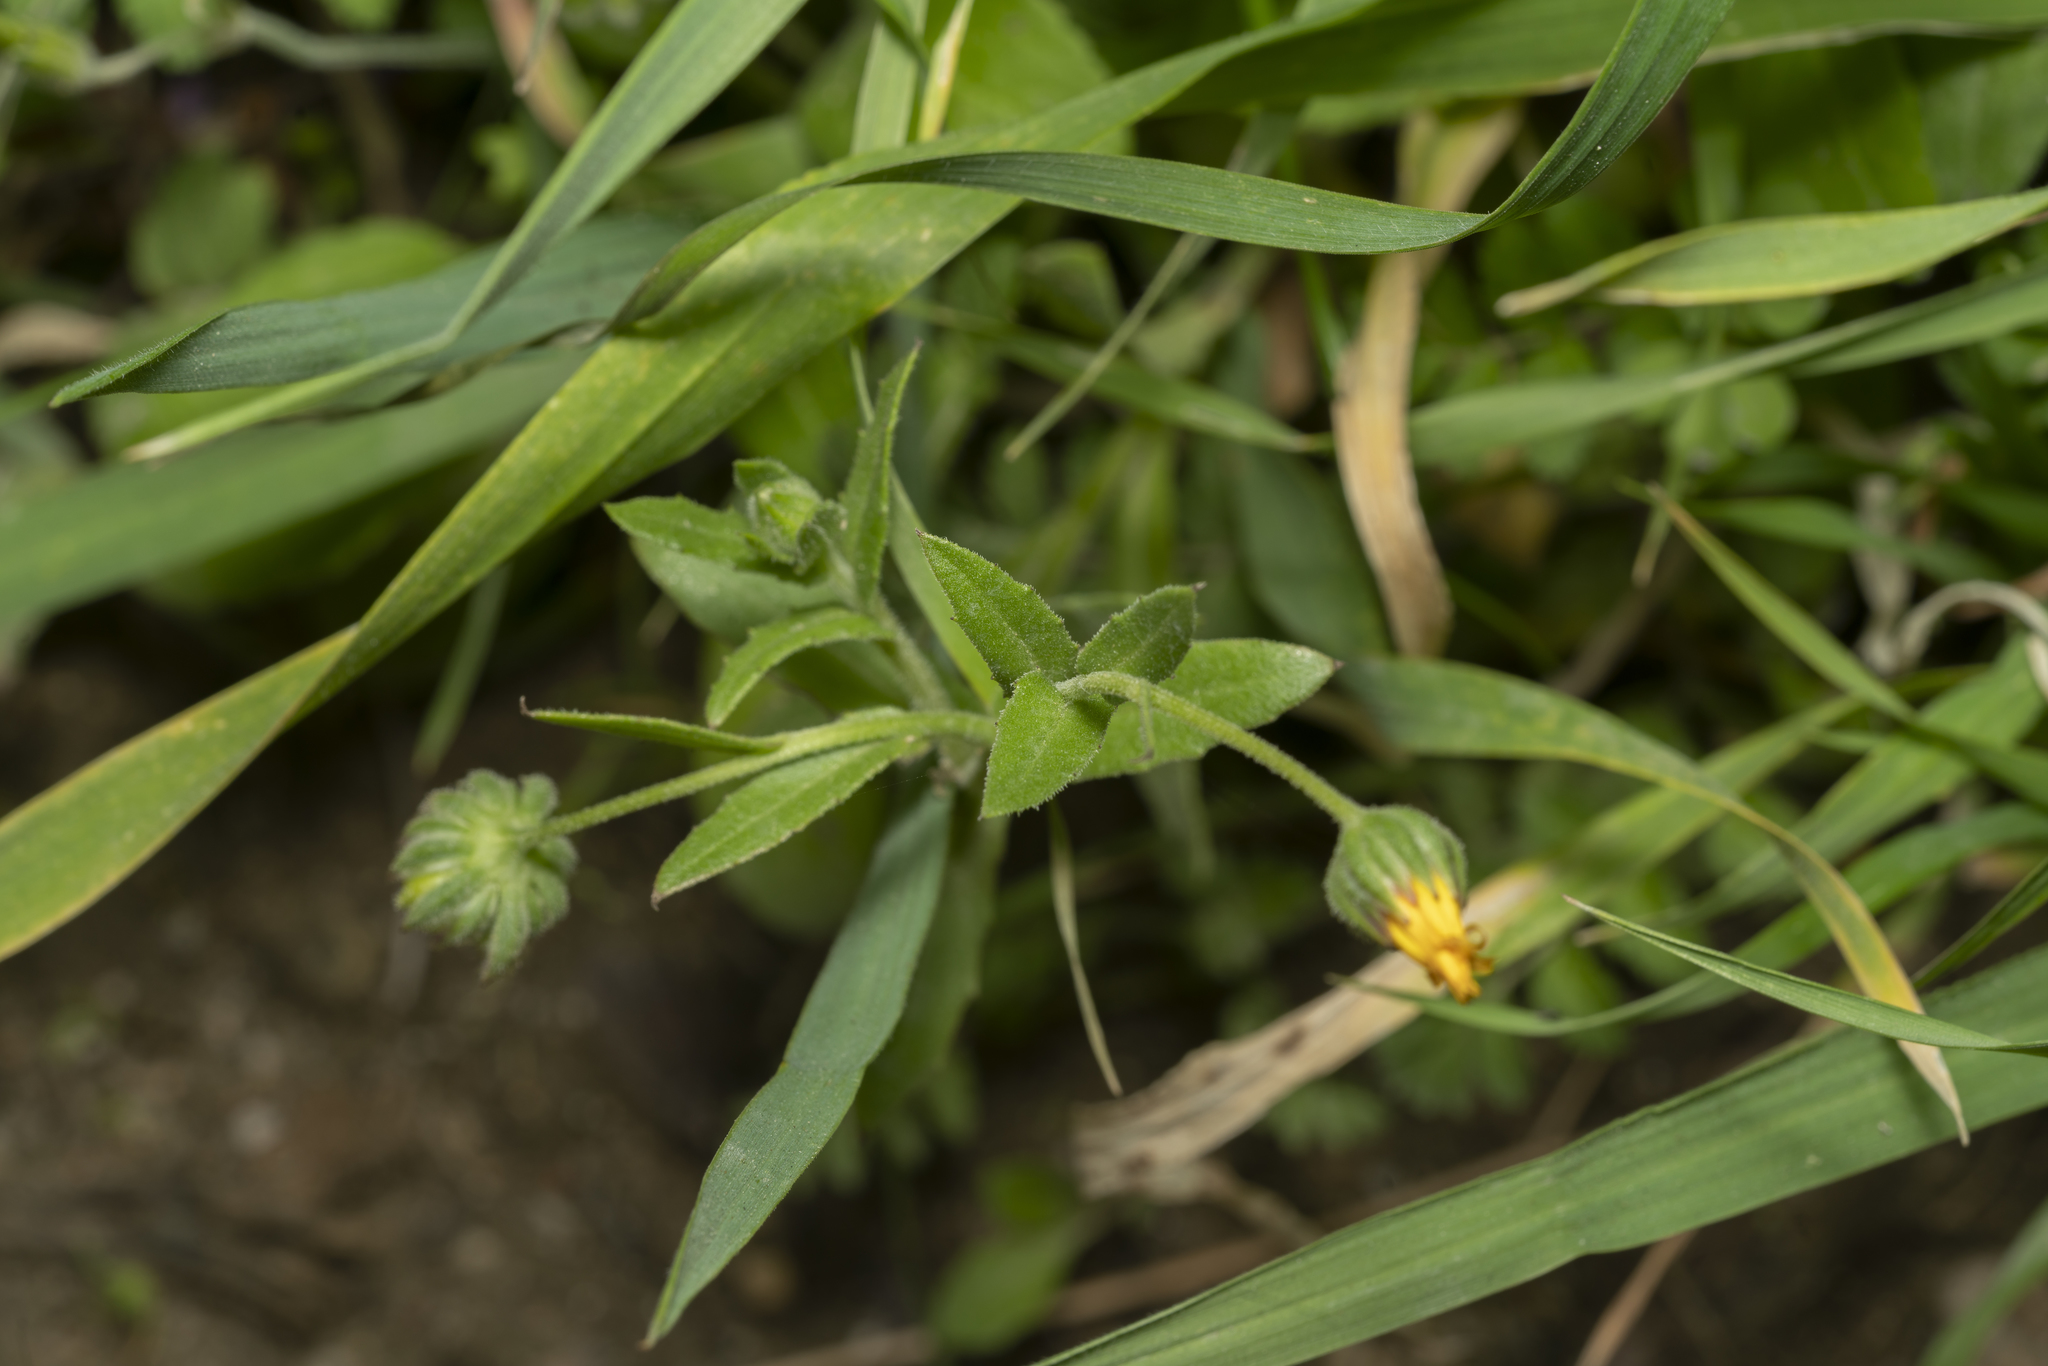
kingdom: Plantae
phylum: Tracheophyta
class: Magnoliopsida
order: Asterales
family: Asteraceae
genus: Calendula
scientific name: Calendula arvensis
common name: Field marigold
